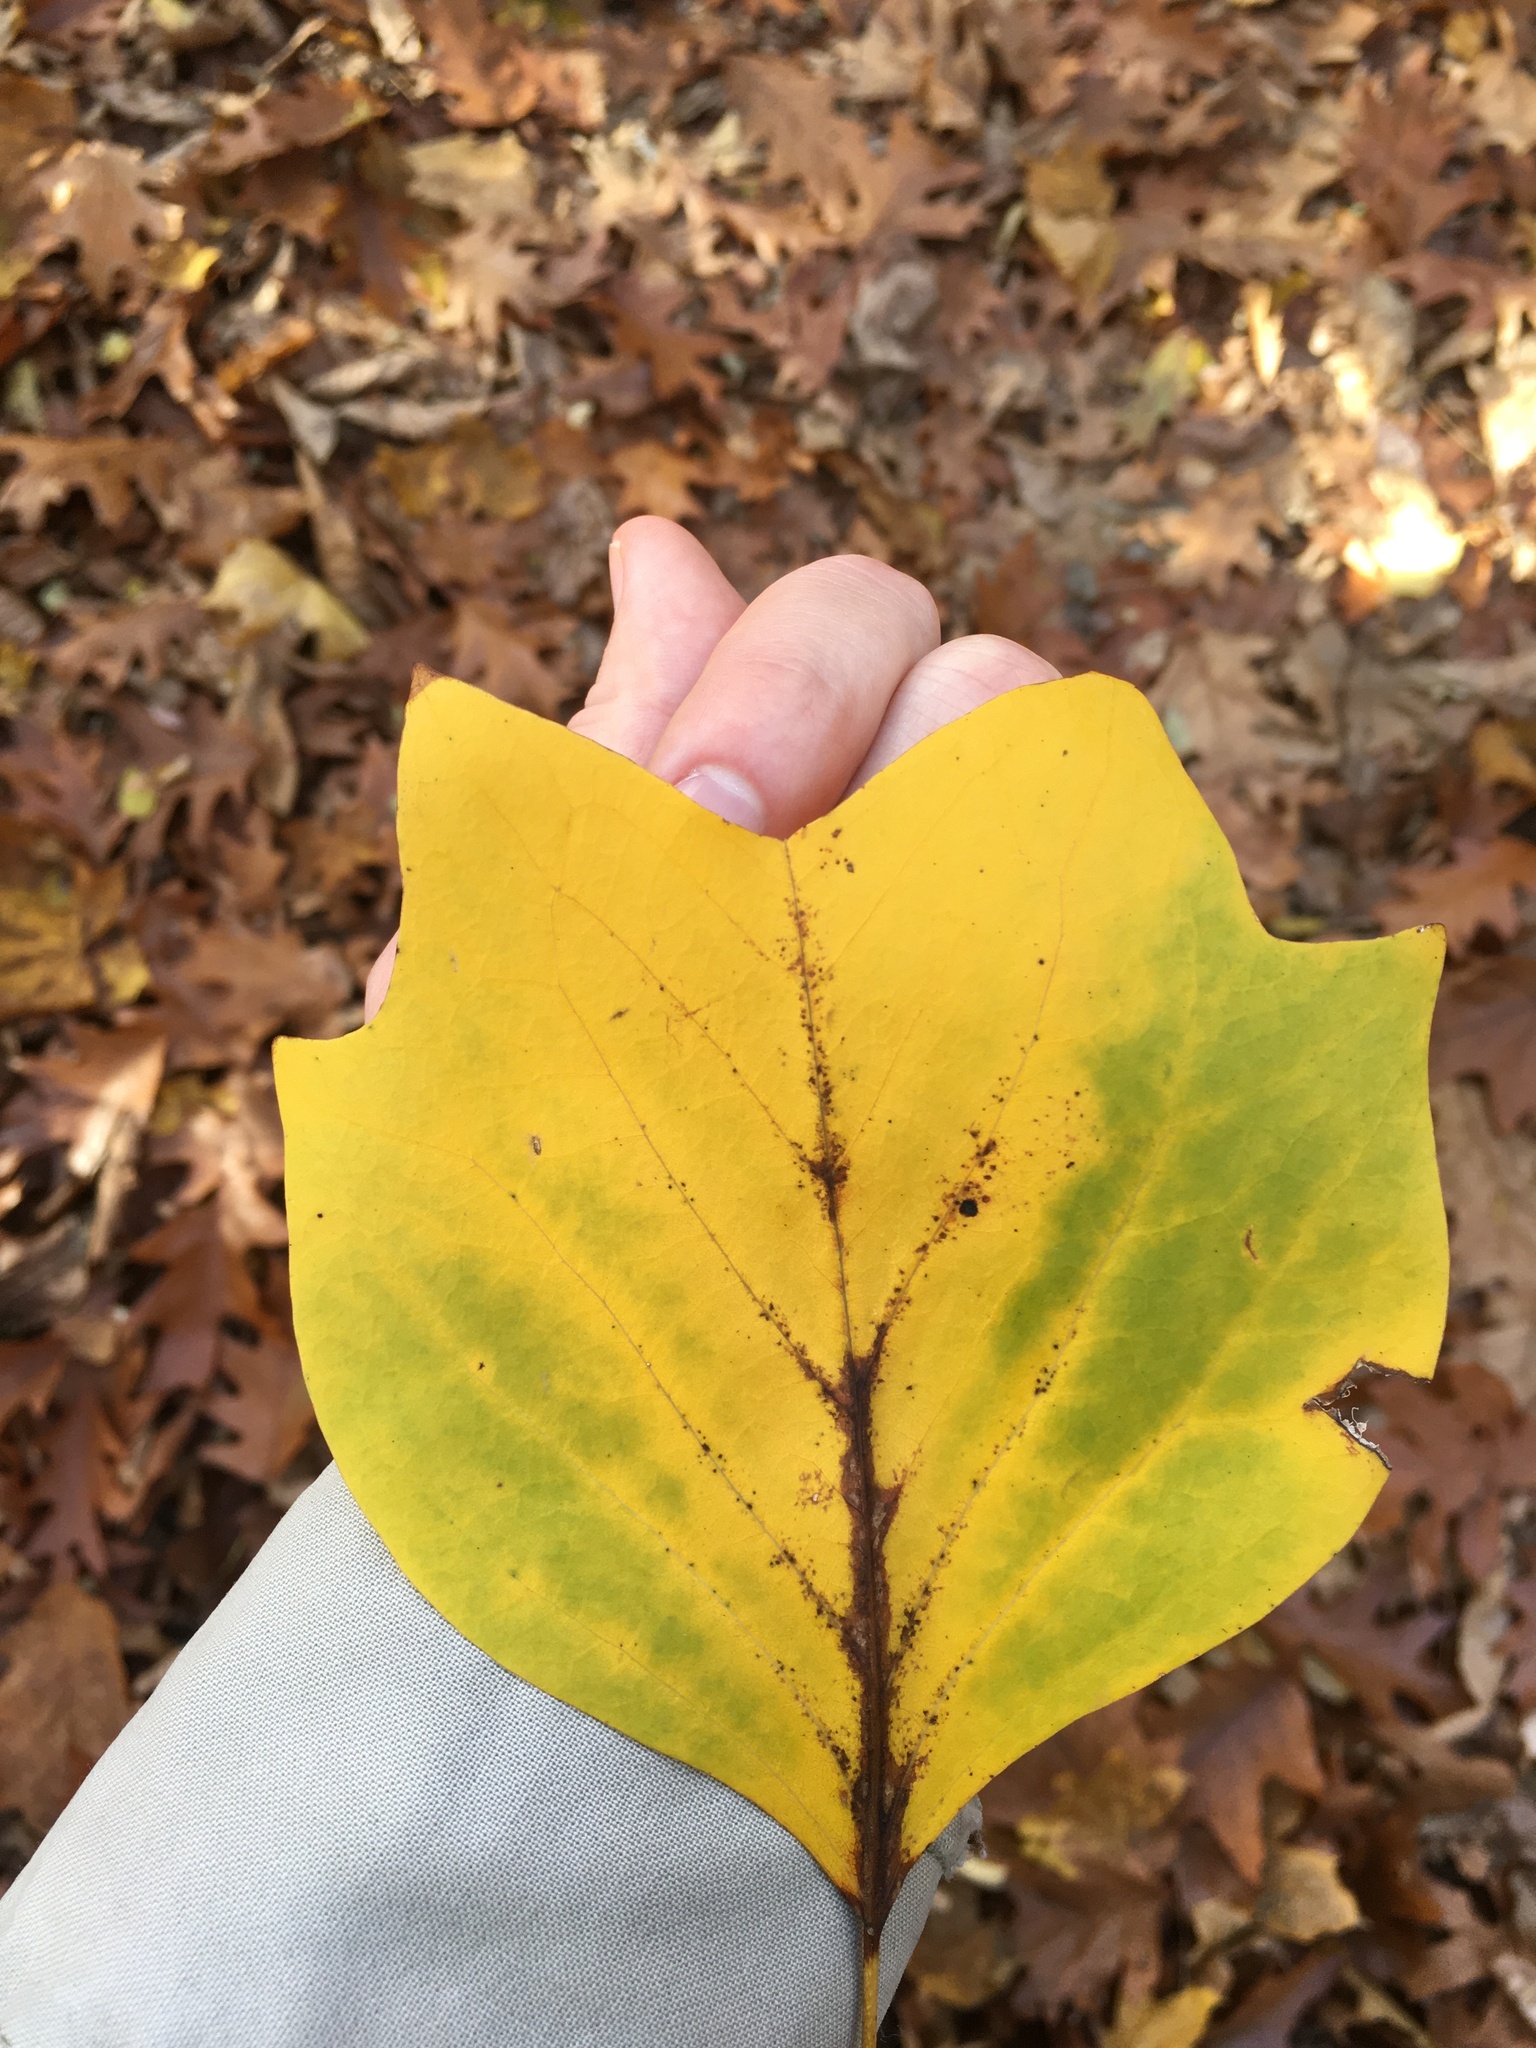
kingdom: Plantae
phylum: Tracheophyta
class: Magnoliopsida
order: Magnoliales
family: Magnoliaceae
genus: Liriodendron
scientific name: Liriodendron tulipifera
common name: Tulip tree
